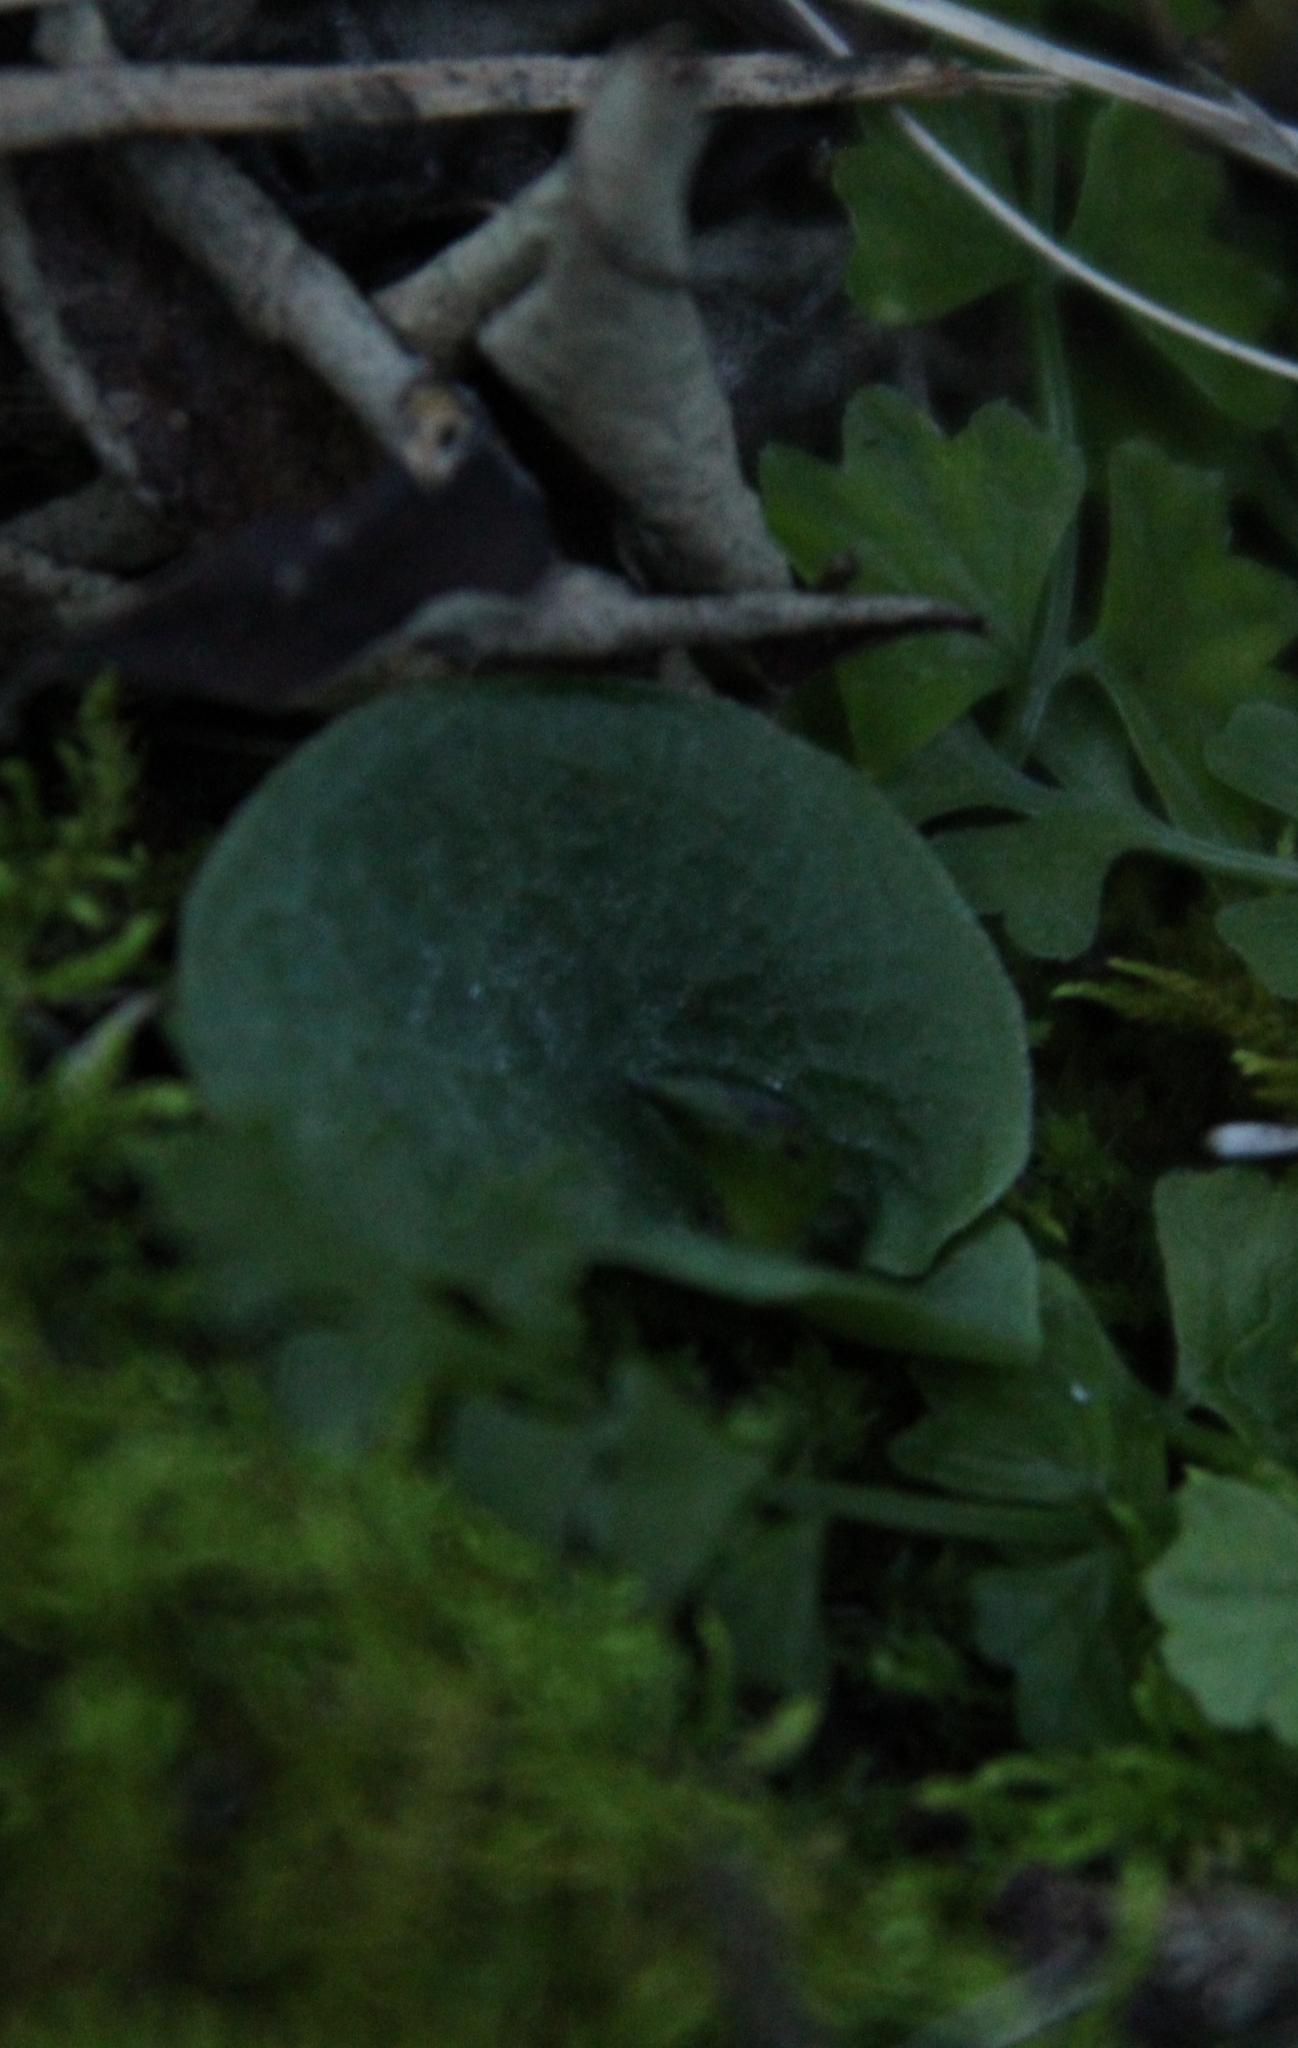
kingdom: Plantae
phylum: Tracheophyta
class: Liliopsida
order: Asparagales
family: Orchidaceae
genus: Corybas
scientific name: Corybas recurvus
